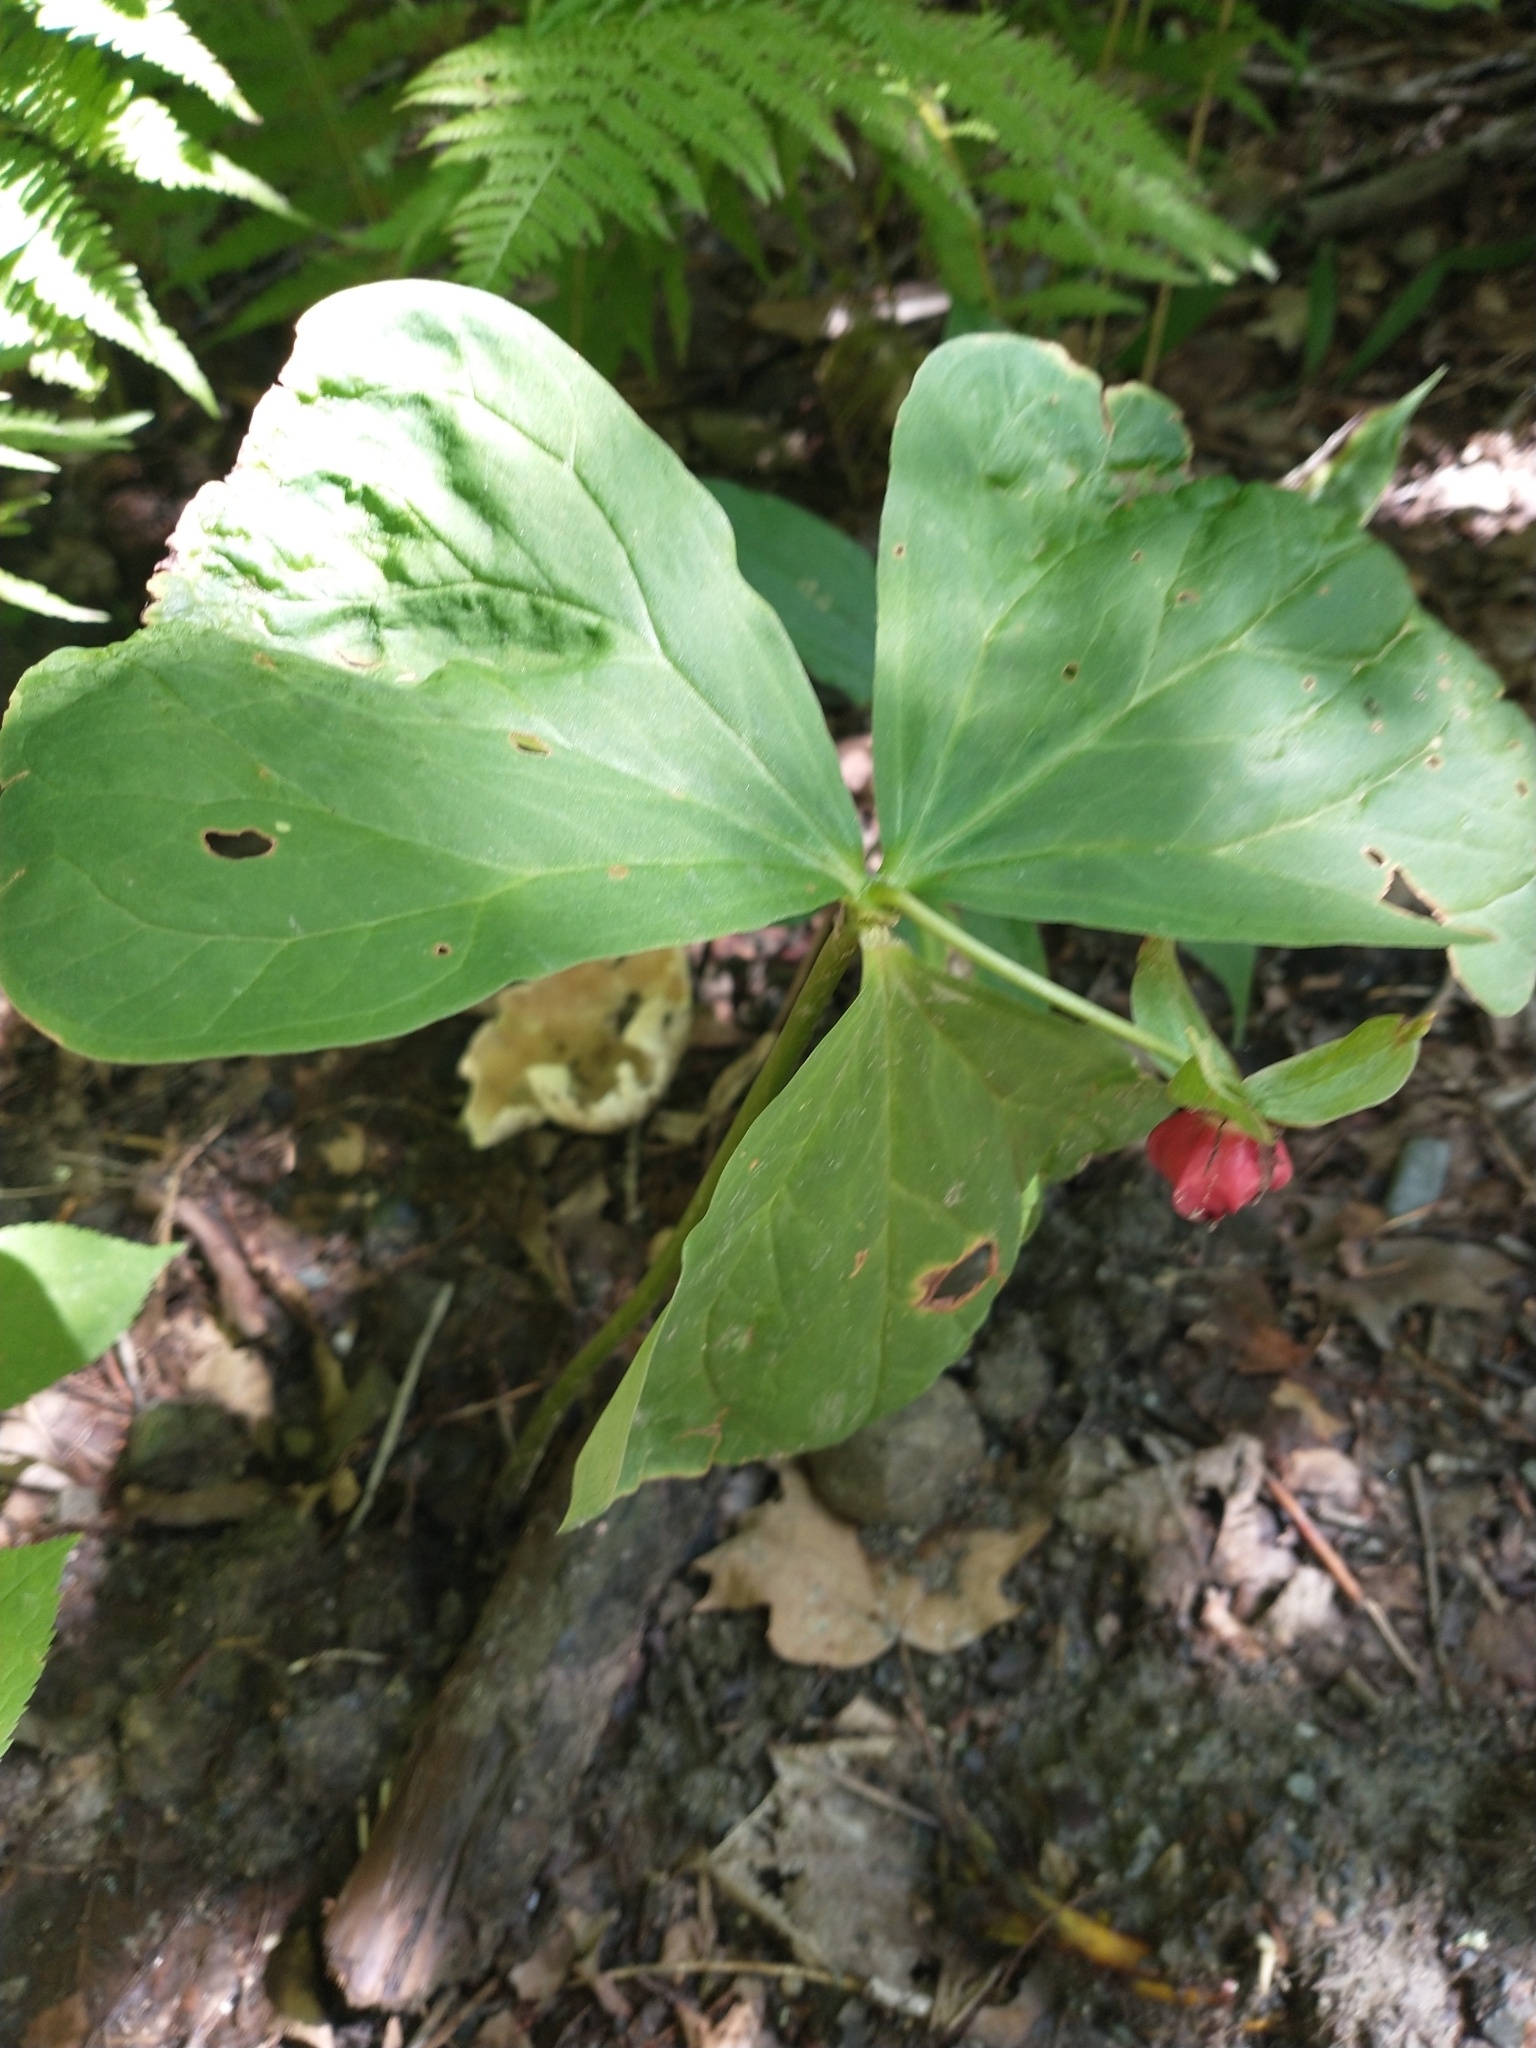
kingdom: Plantae
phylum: Tracheophyta
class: Liliopsida
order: Liliales
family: Melanthiaceae
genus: Trillium
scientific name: Trillium erectum
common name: Purple trillium
